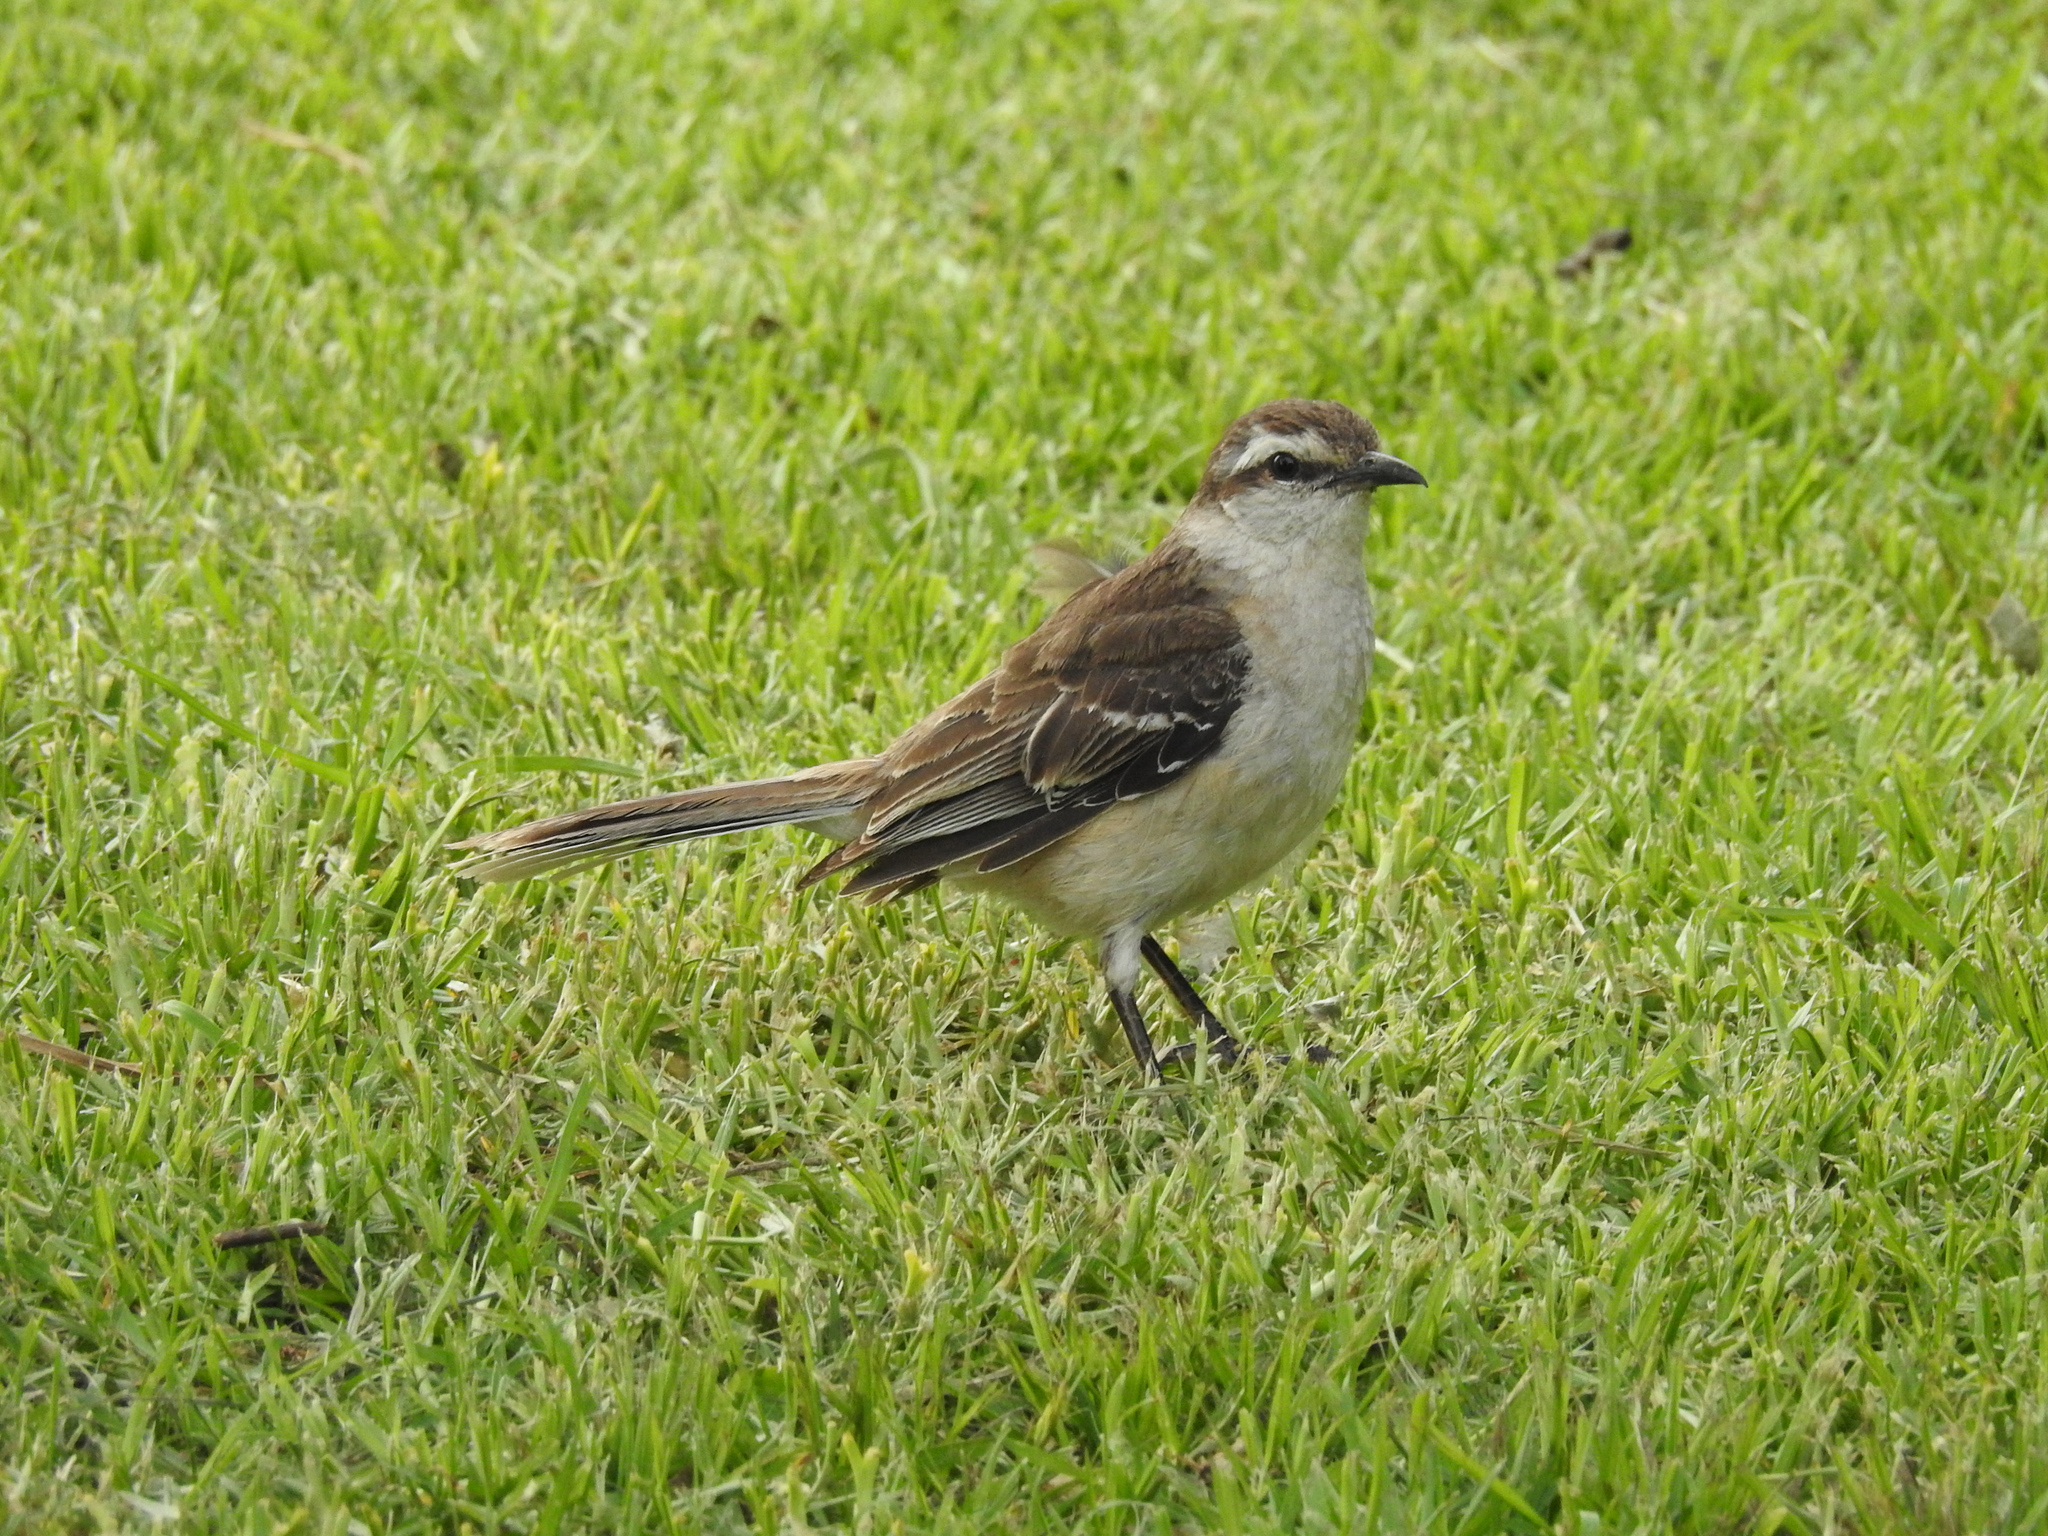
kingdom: Animalia
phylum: Chordata
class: Aves
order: Passeriformes
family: Mimidae
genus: Mimus
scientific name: Mimus saturninus
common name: Chalk-browed mockingbird
